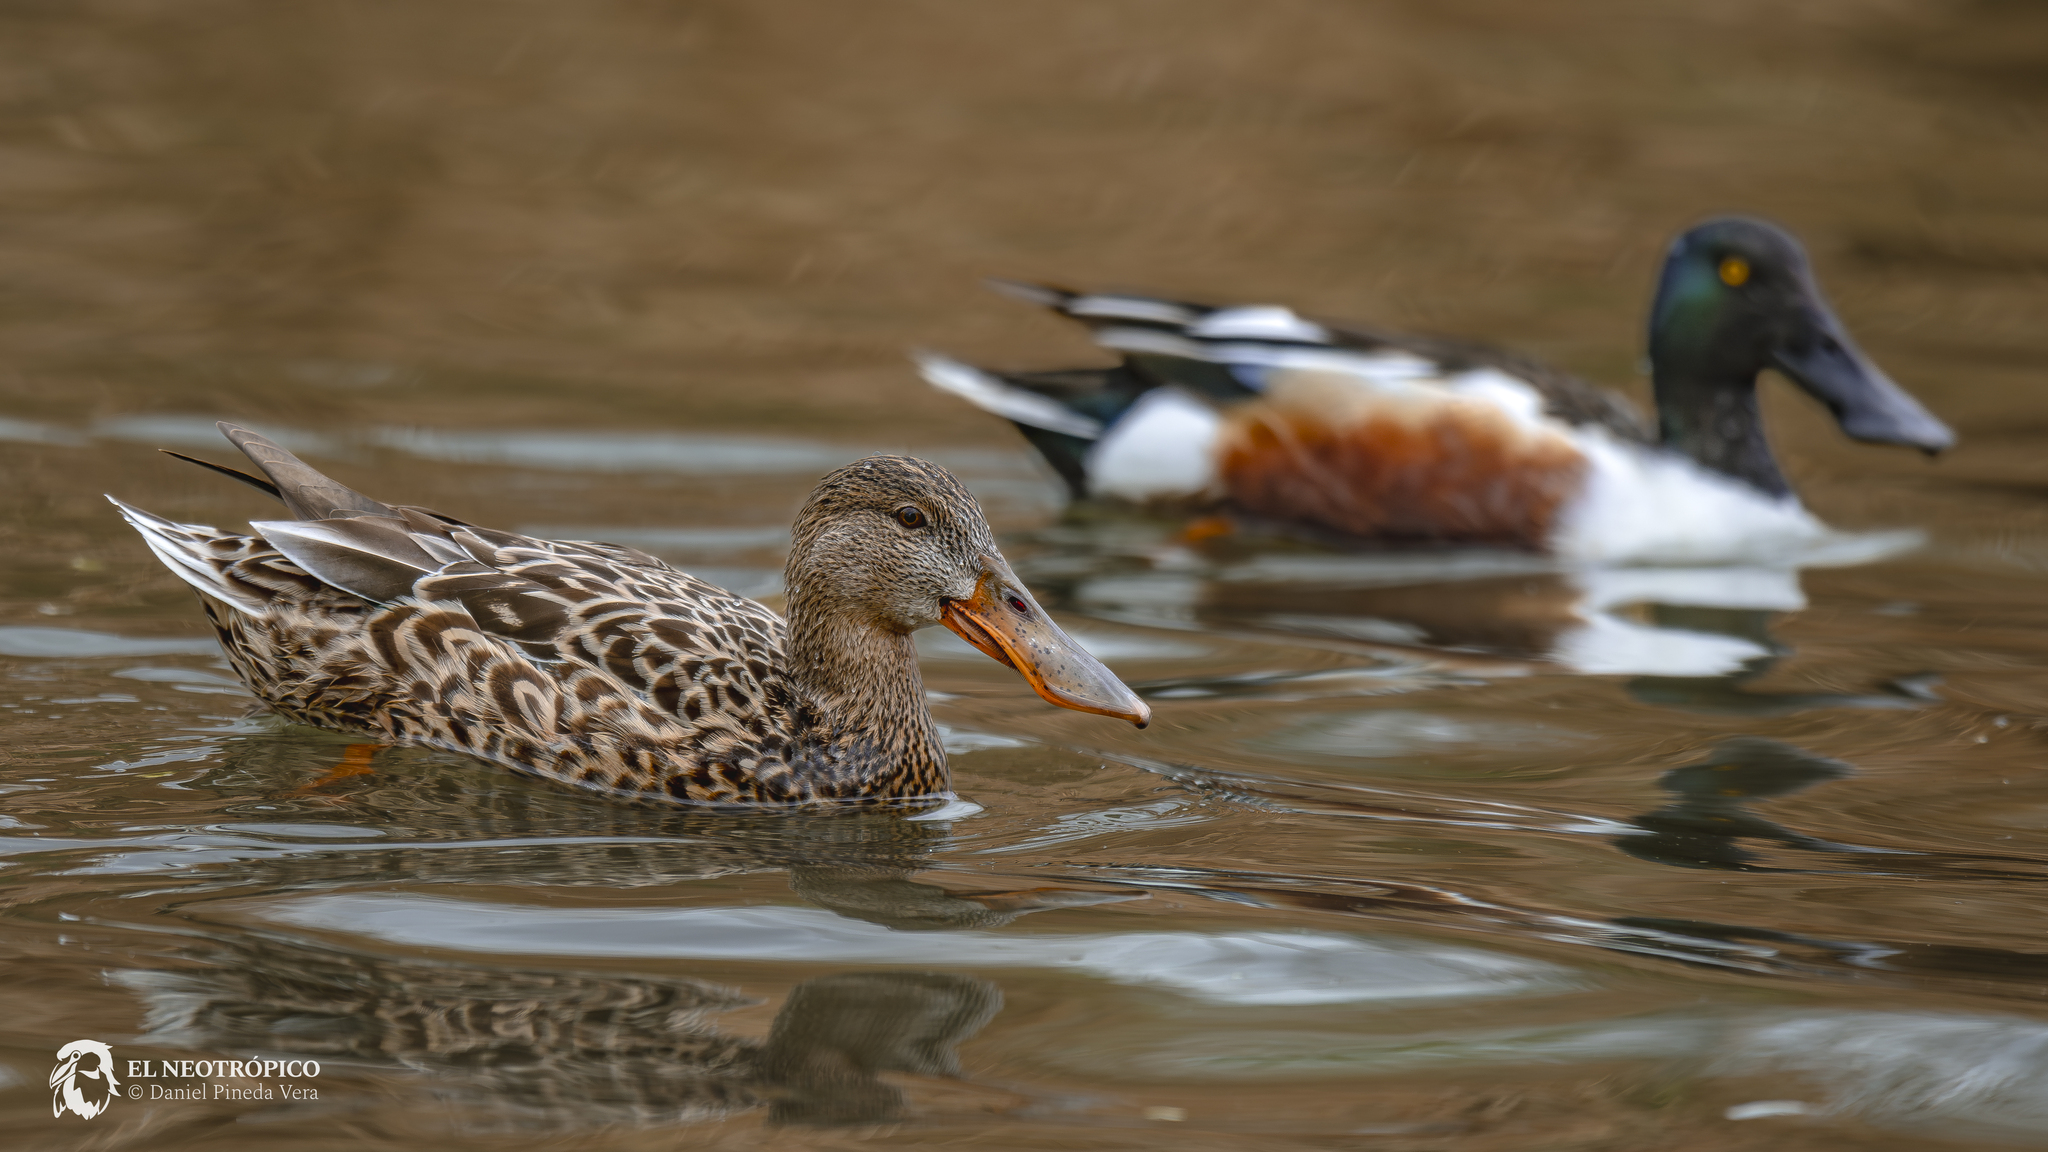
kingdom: Animalia
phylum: Chordata
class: Aves
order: Anseriformes
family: Anatidae
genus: Spatula
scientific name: Spatula clypeata
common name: Northern shoveler
